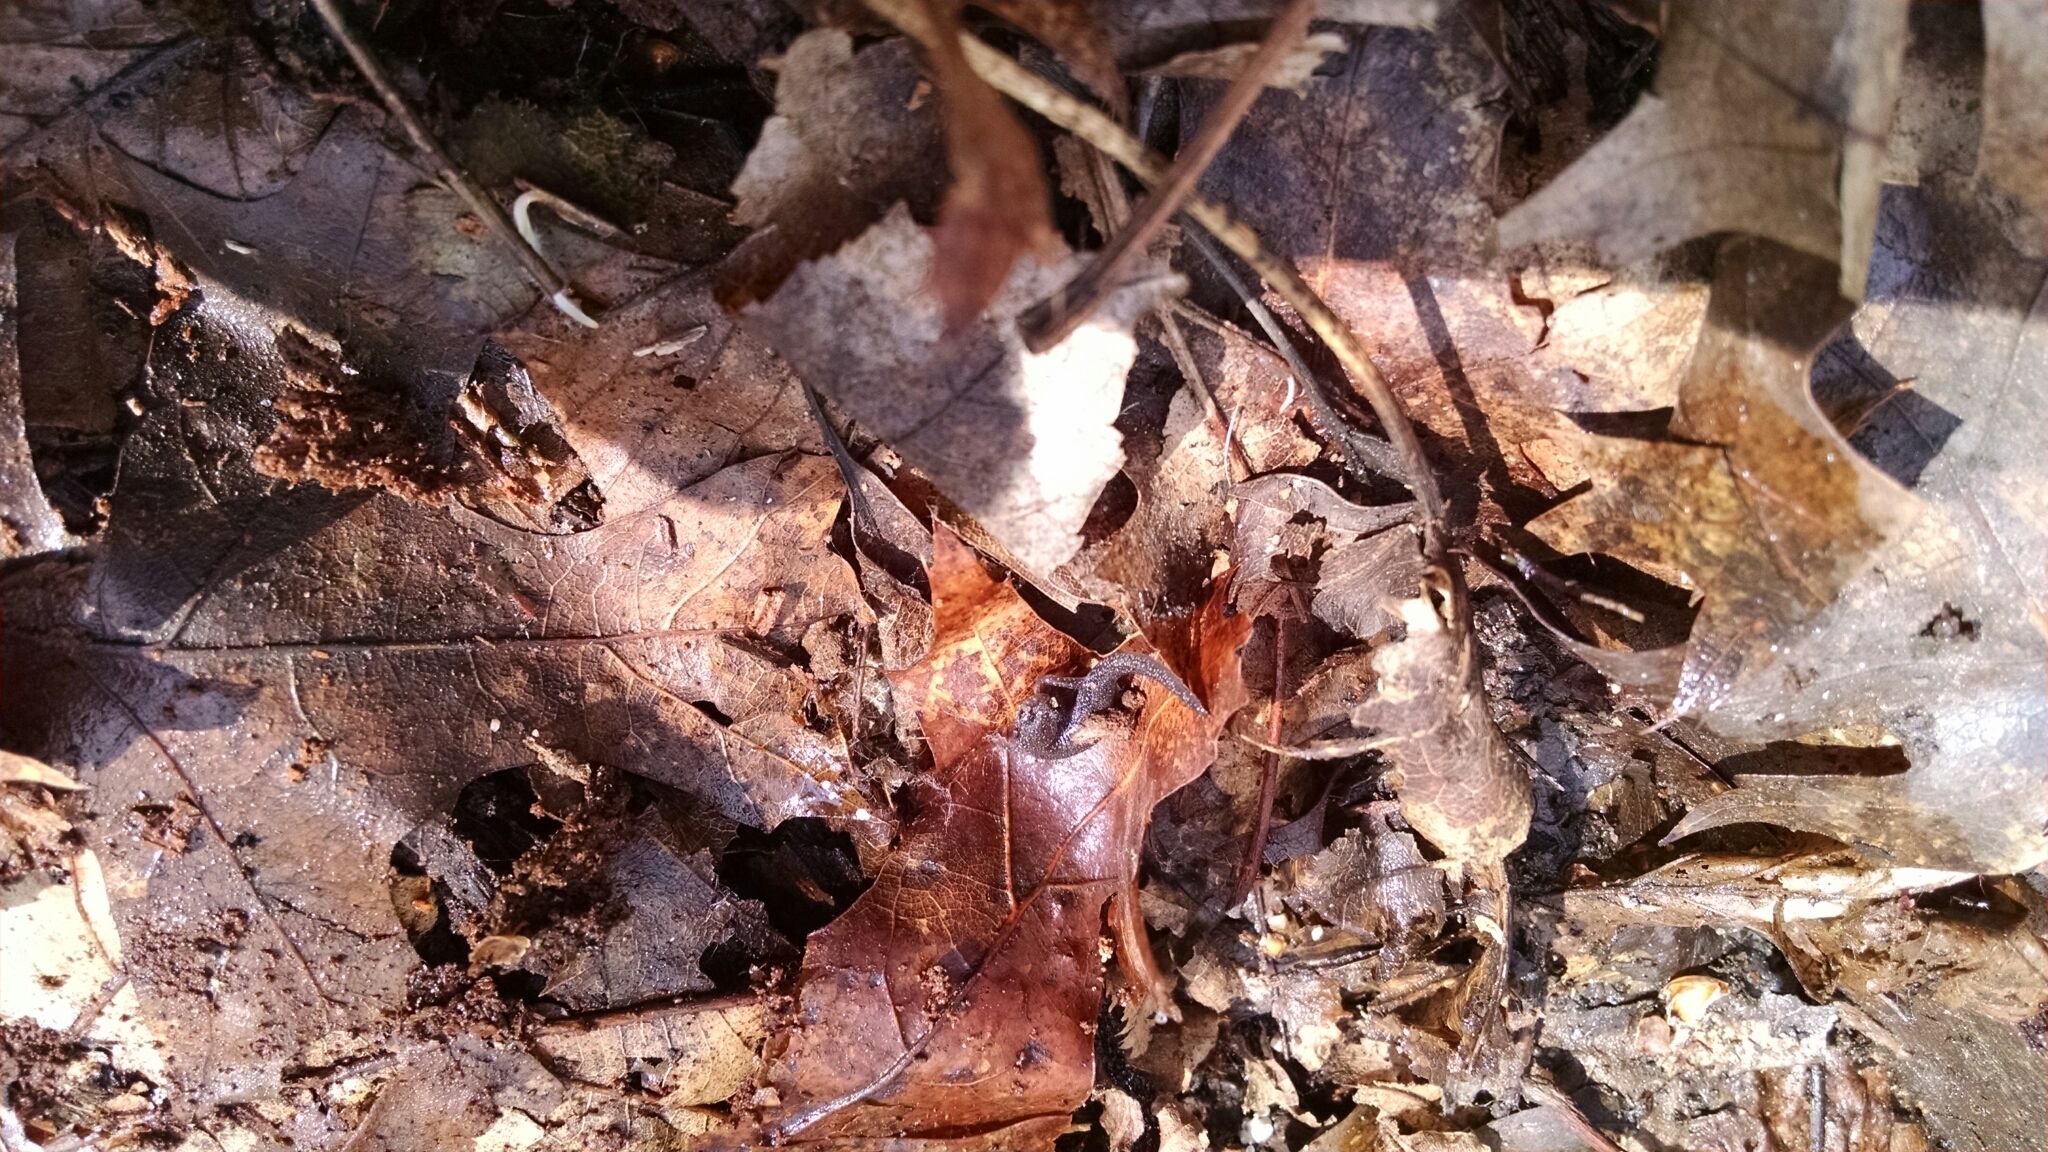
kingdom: Animalia
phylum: Chordata
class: Amphibia
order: Caudata
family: Plethodontidae
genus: Plethodon
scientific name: Plethodon cinereus
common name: Redback salamander
